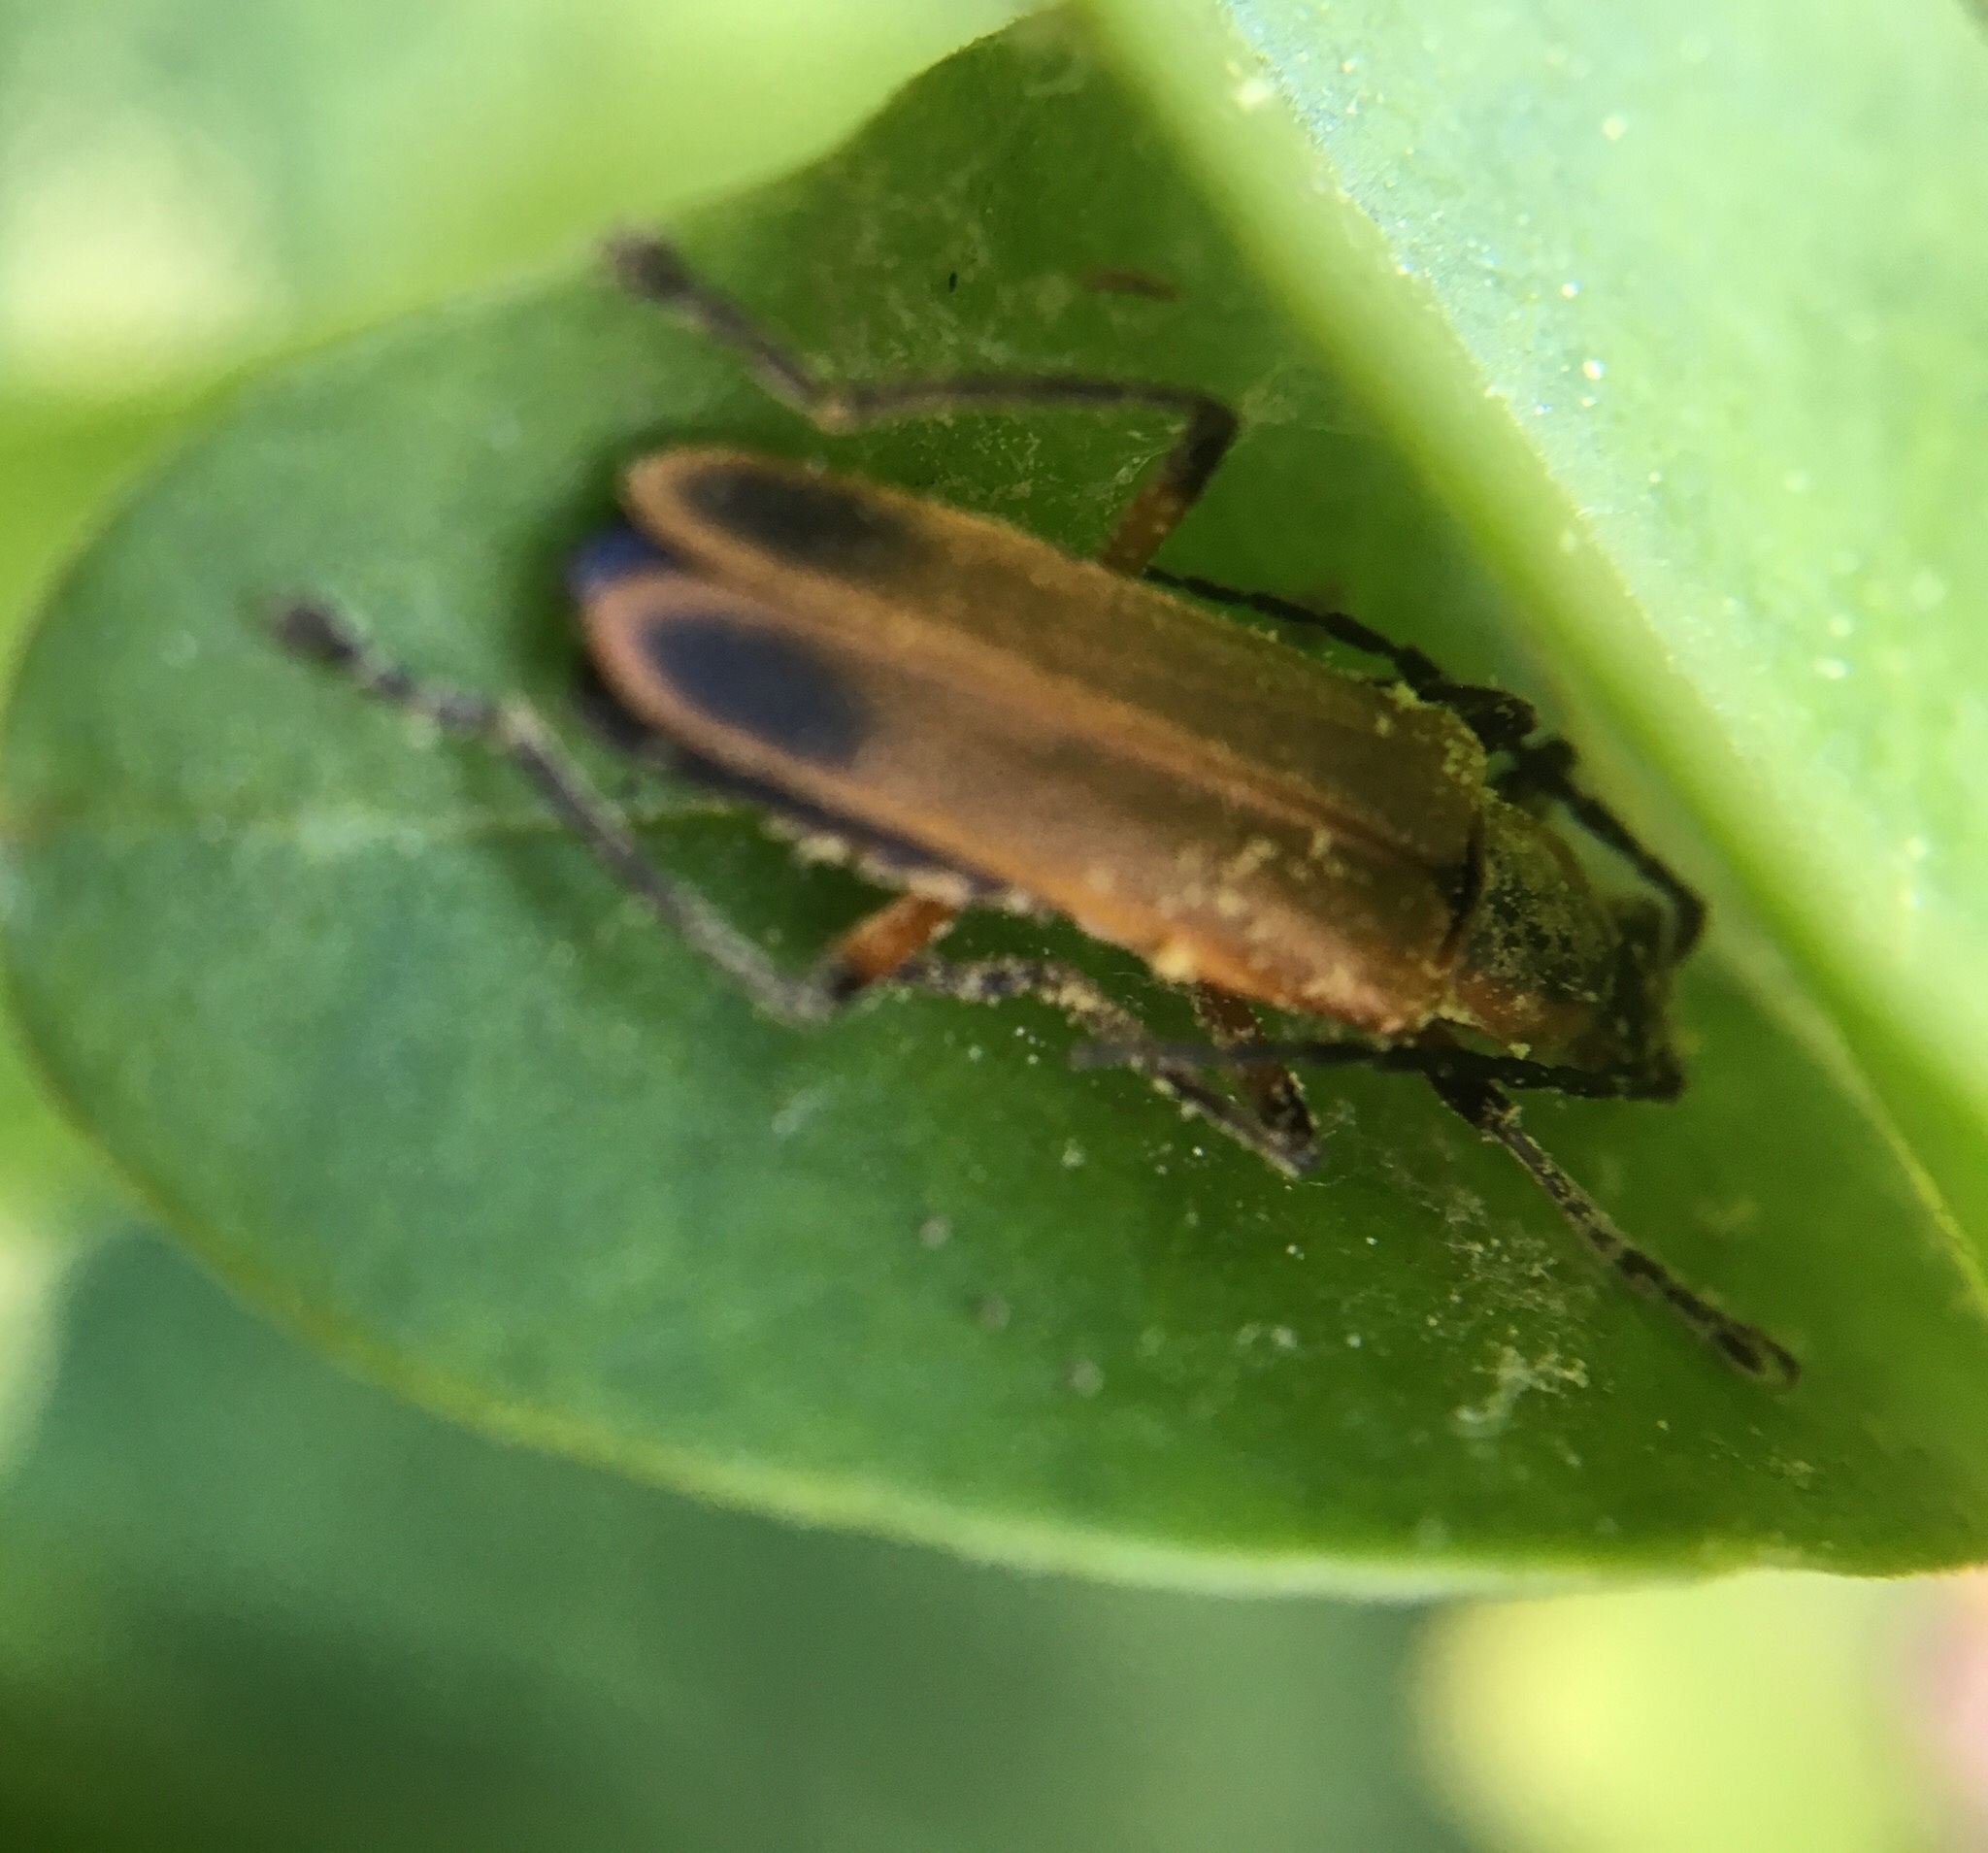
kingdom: Animalia
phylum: Arthropoda
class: Insecta
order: Coleoptera
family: Cantharidae
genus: Chauliognathus
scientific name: Chauliognathus marginatus
